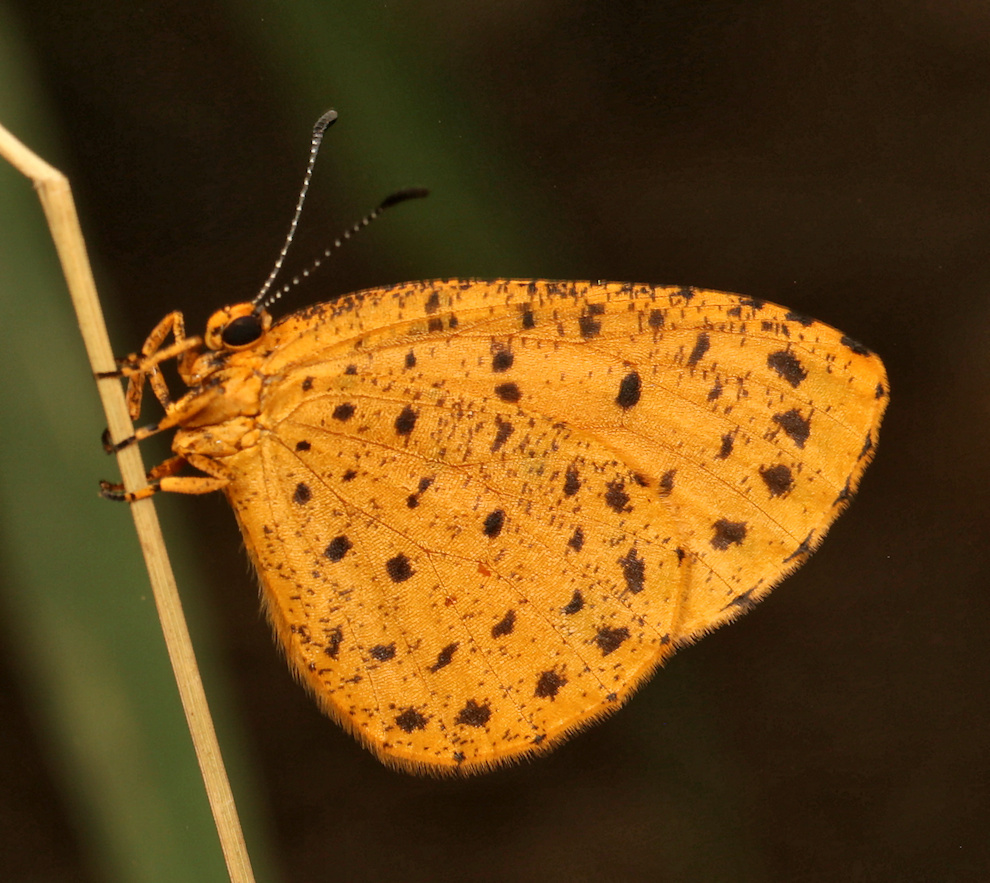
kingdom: Animalia
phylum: Arthropoda
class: Insecta
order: Lepidoptera
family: Lycaenidae
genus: Pentila
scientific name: Pentila tropicalis
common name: Spotted buff
